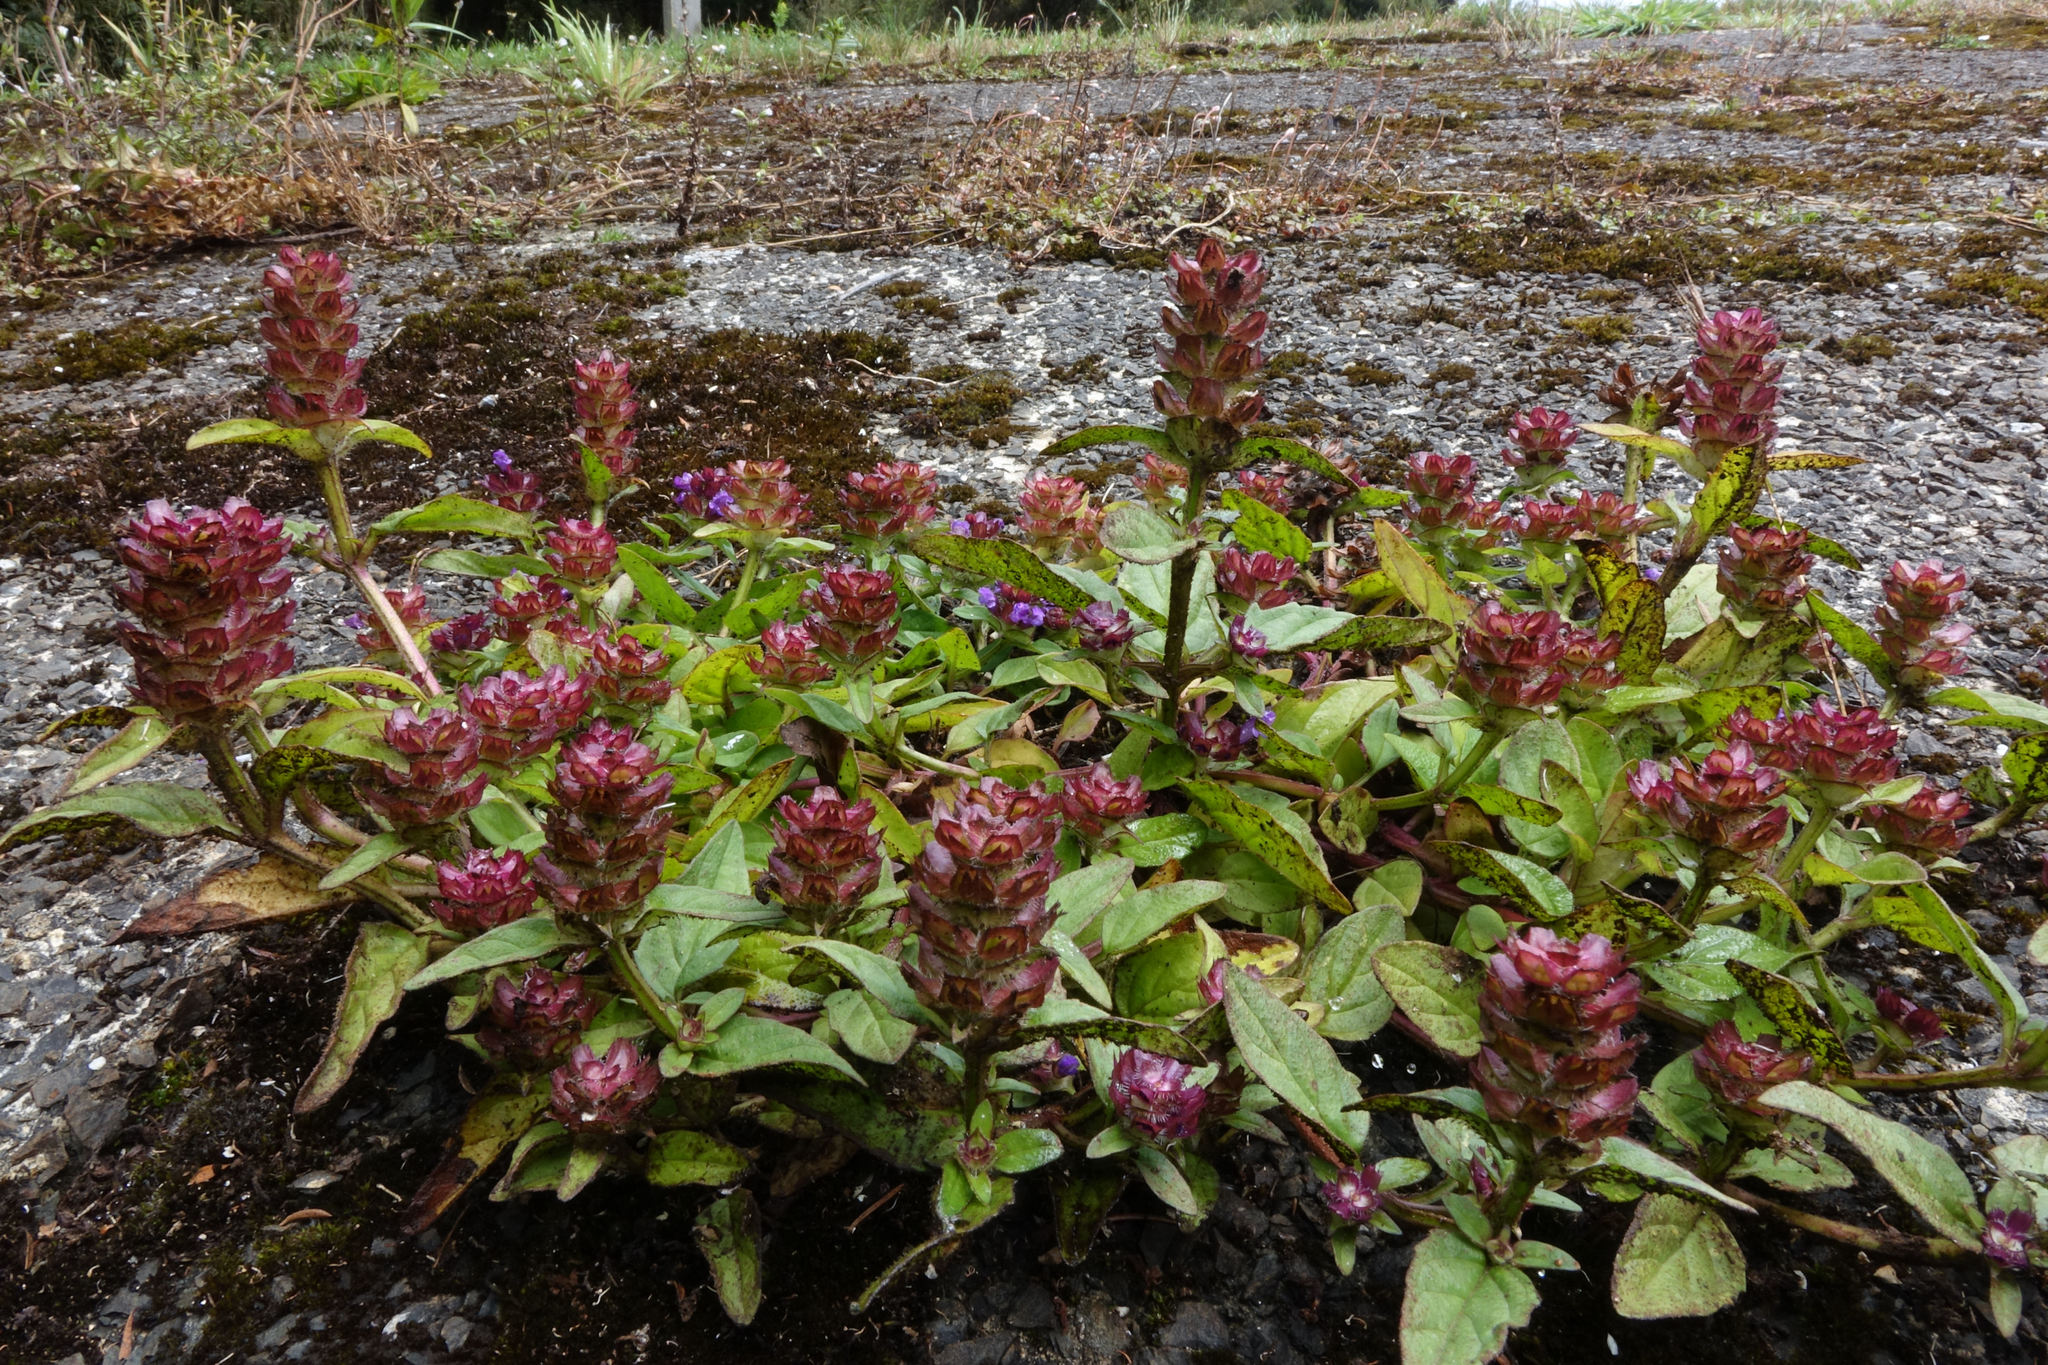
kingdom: Plantae
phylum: Tracheophyta
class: Magnoliopsida
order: Lamiales
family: Lamiaceae
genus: Prunella
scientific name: Prunella vulgaris
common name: Heal-all
